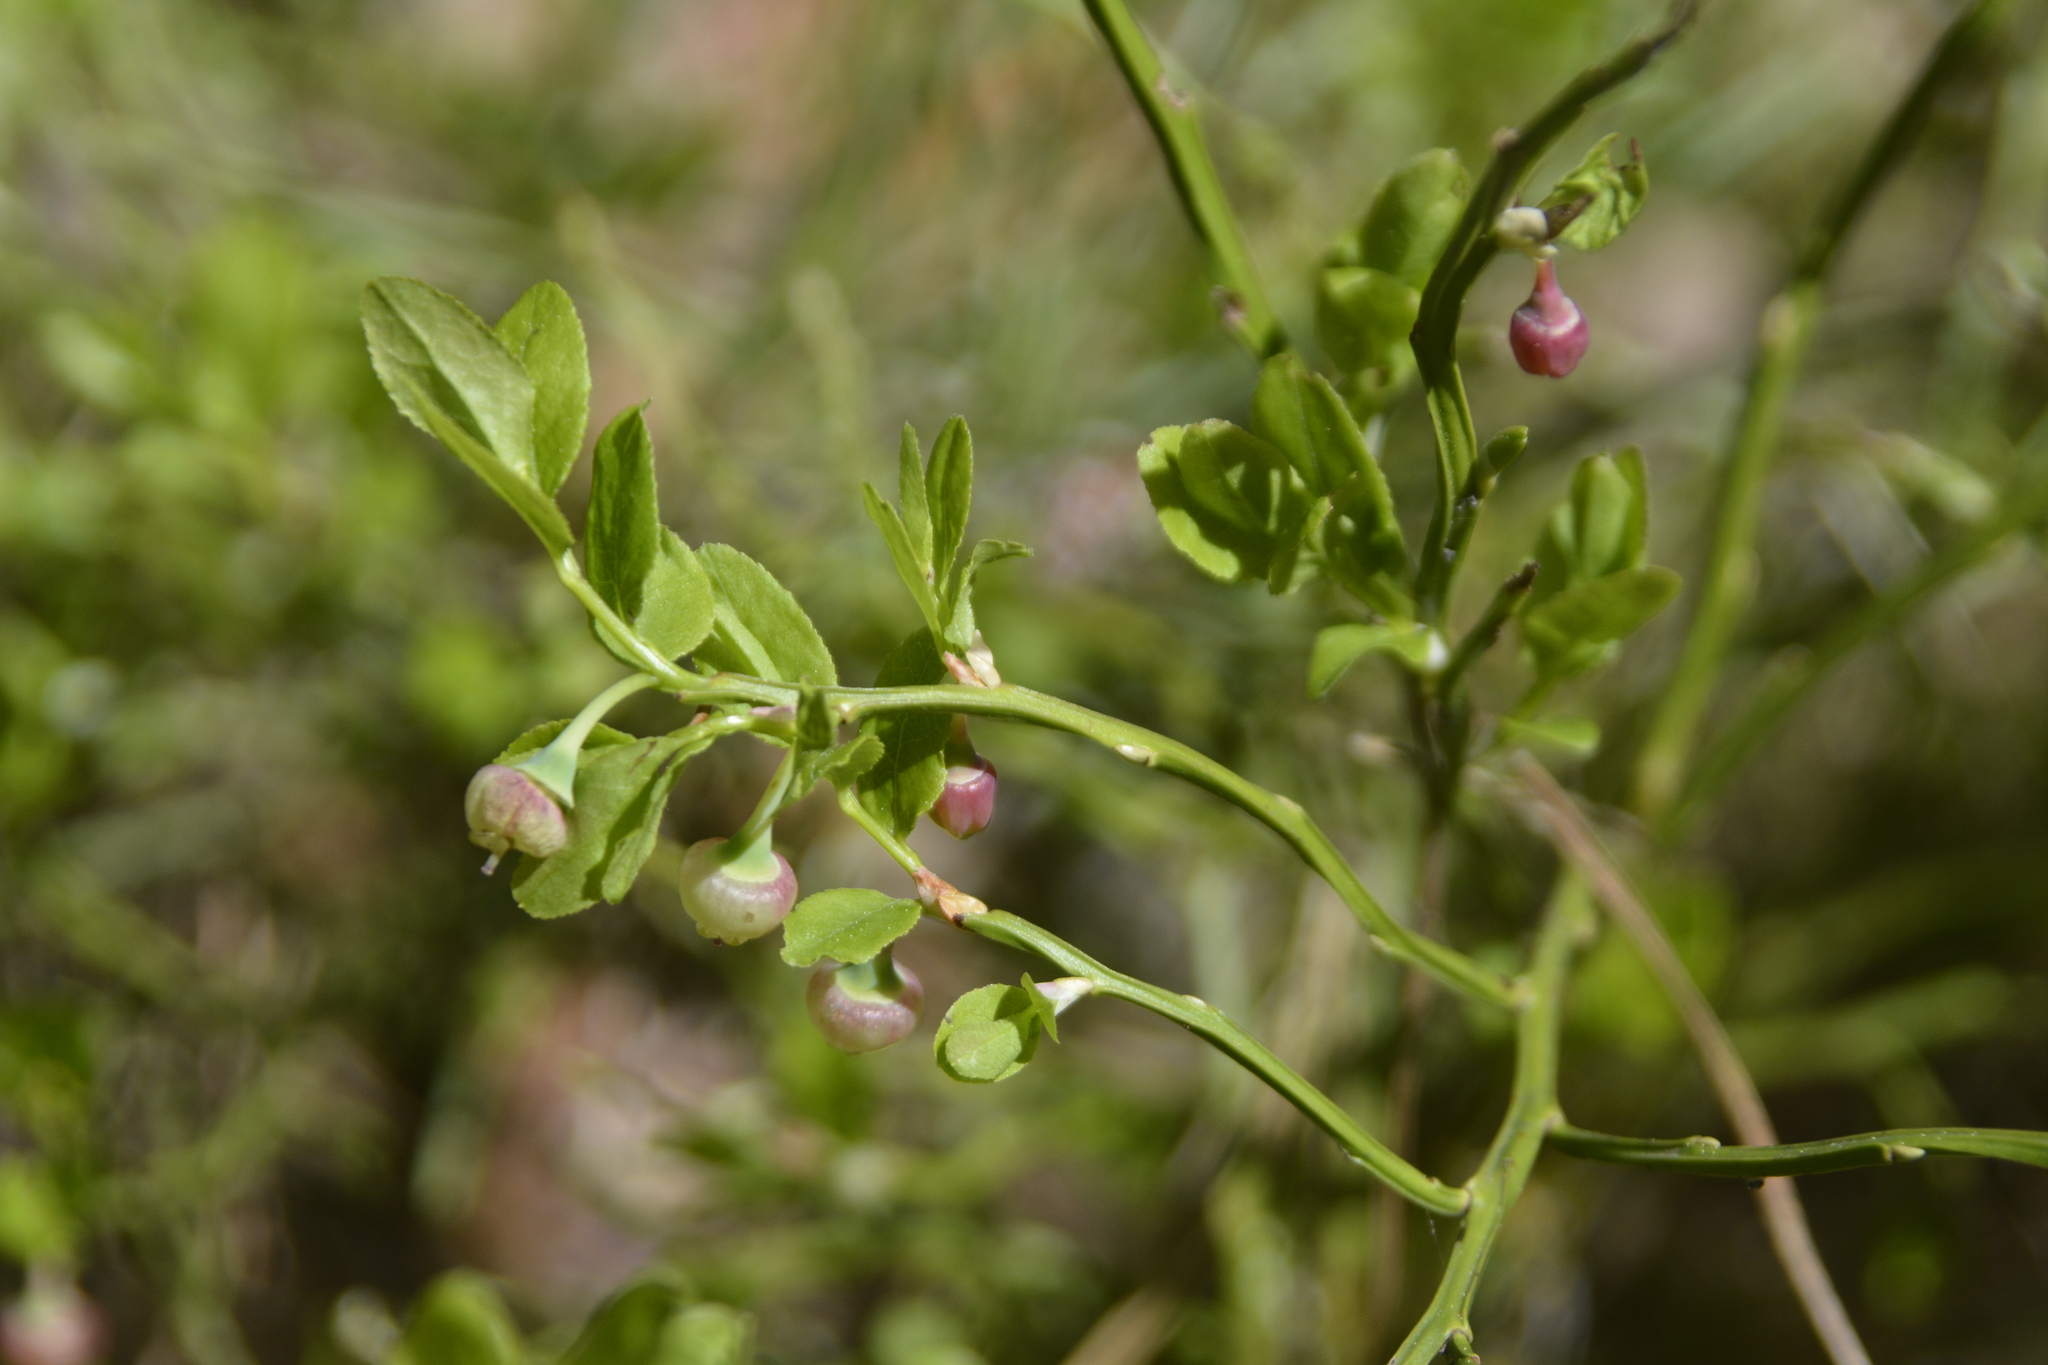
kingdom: Plantae
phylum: Tracheophyta
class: Magnoliopsida
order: Ericales
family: Ericaceae
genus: Vaccinium
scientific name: Vaccinium myrtillus
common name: Bilberry
